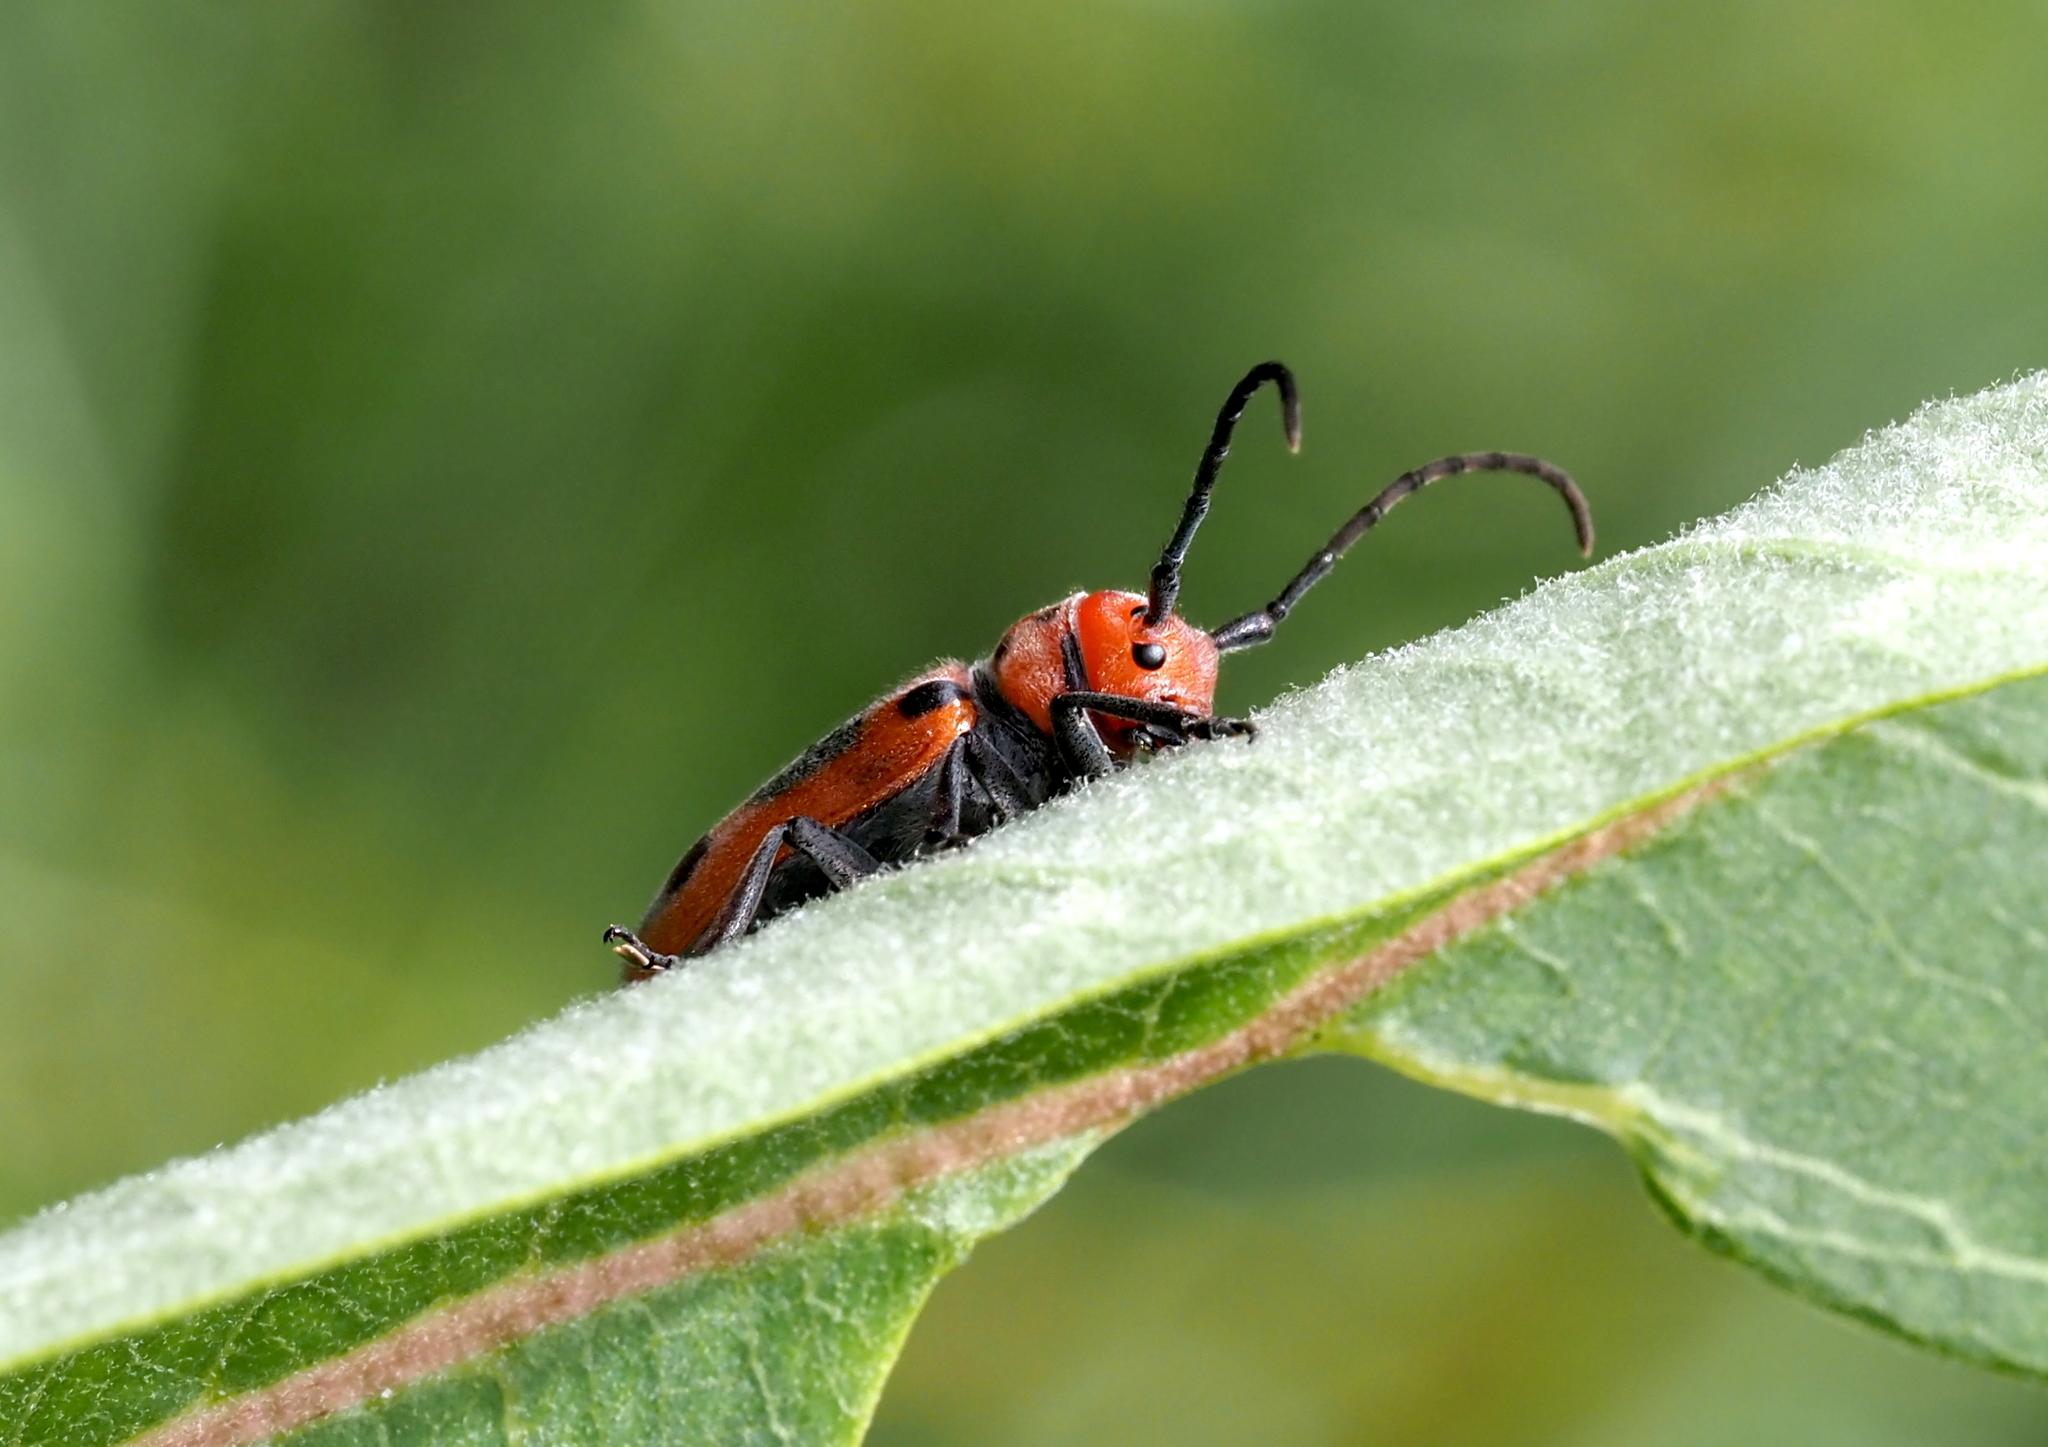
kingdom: Animalia
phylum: Arthropoda
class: Insecta
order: Coleoptera
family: Cerambycidae
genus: Tetraopes
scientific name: Tetraopes tetrophthalmus
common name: Red milkweed beetle
